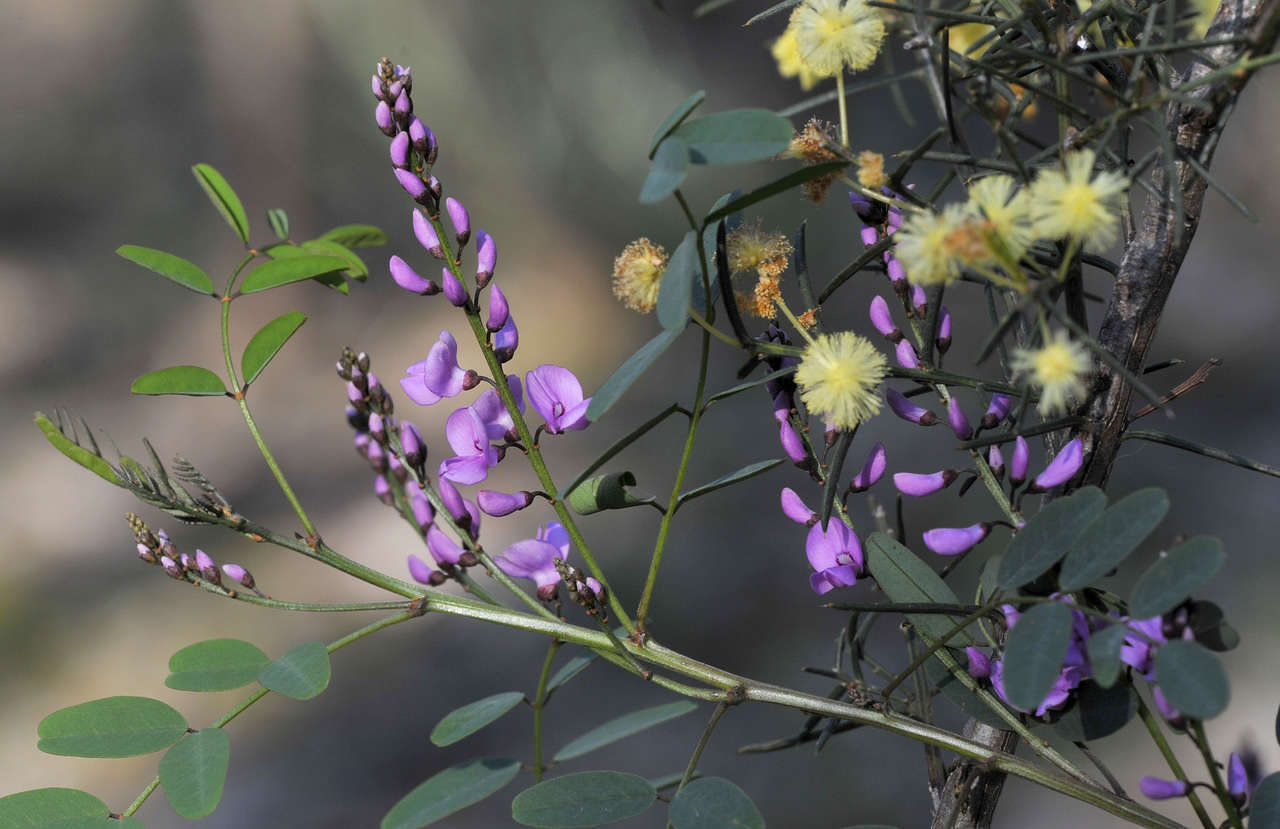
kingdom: Plantae
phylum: Tracheophyta
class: Magnoliopsida
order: Fabales
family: Fabaceae
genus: Indigofera
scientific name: Indigofera australis
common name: Australian indigo
